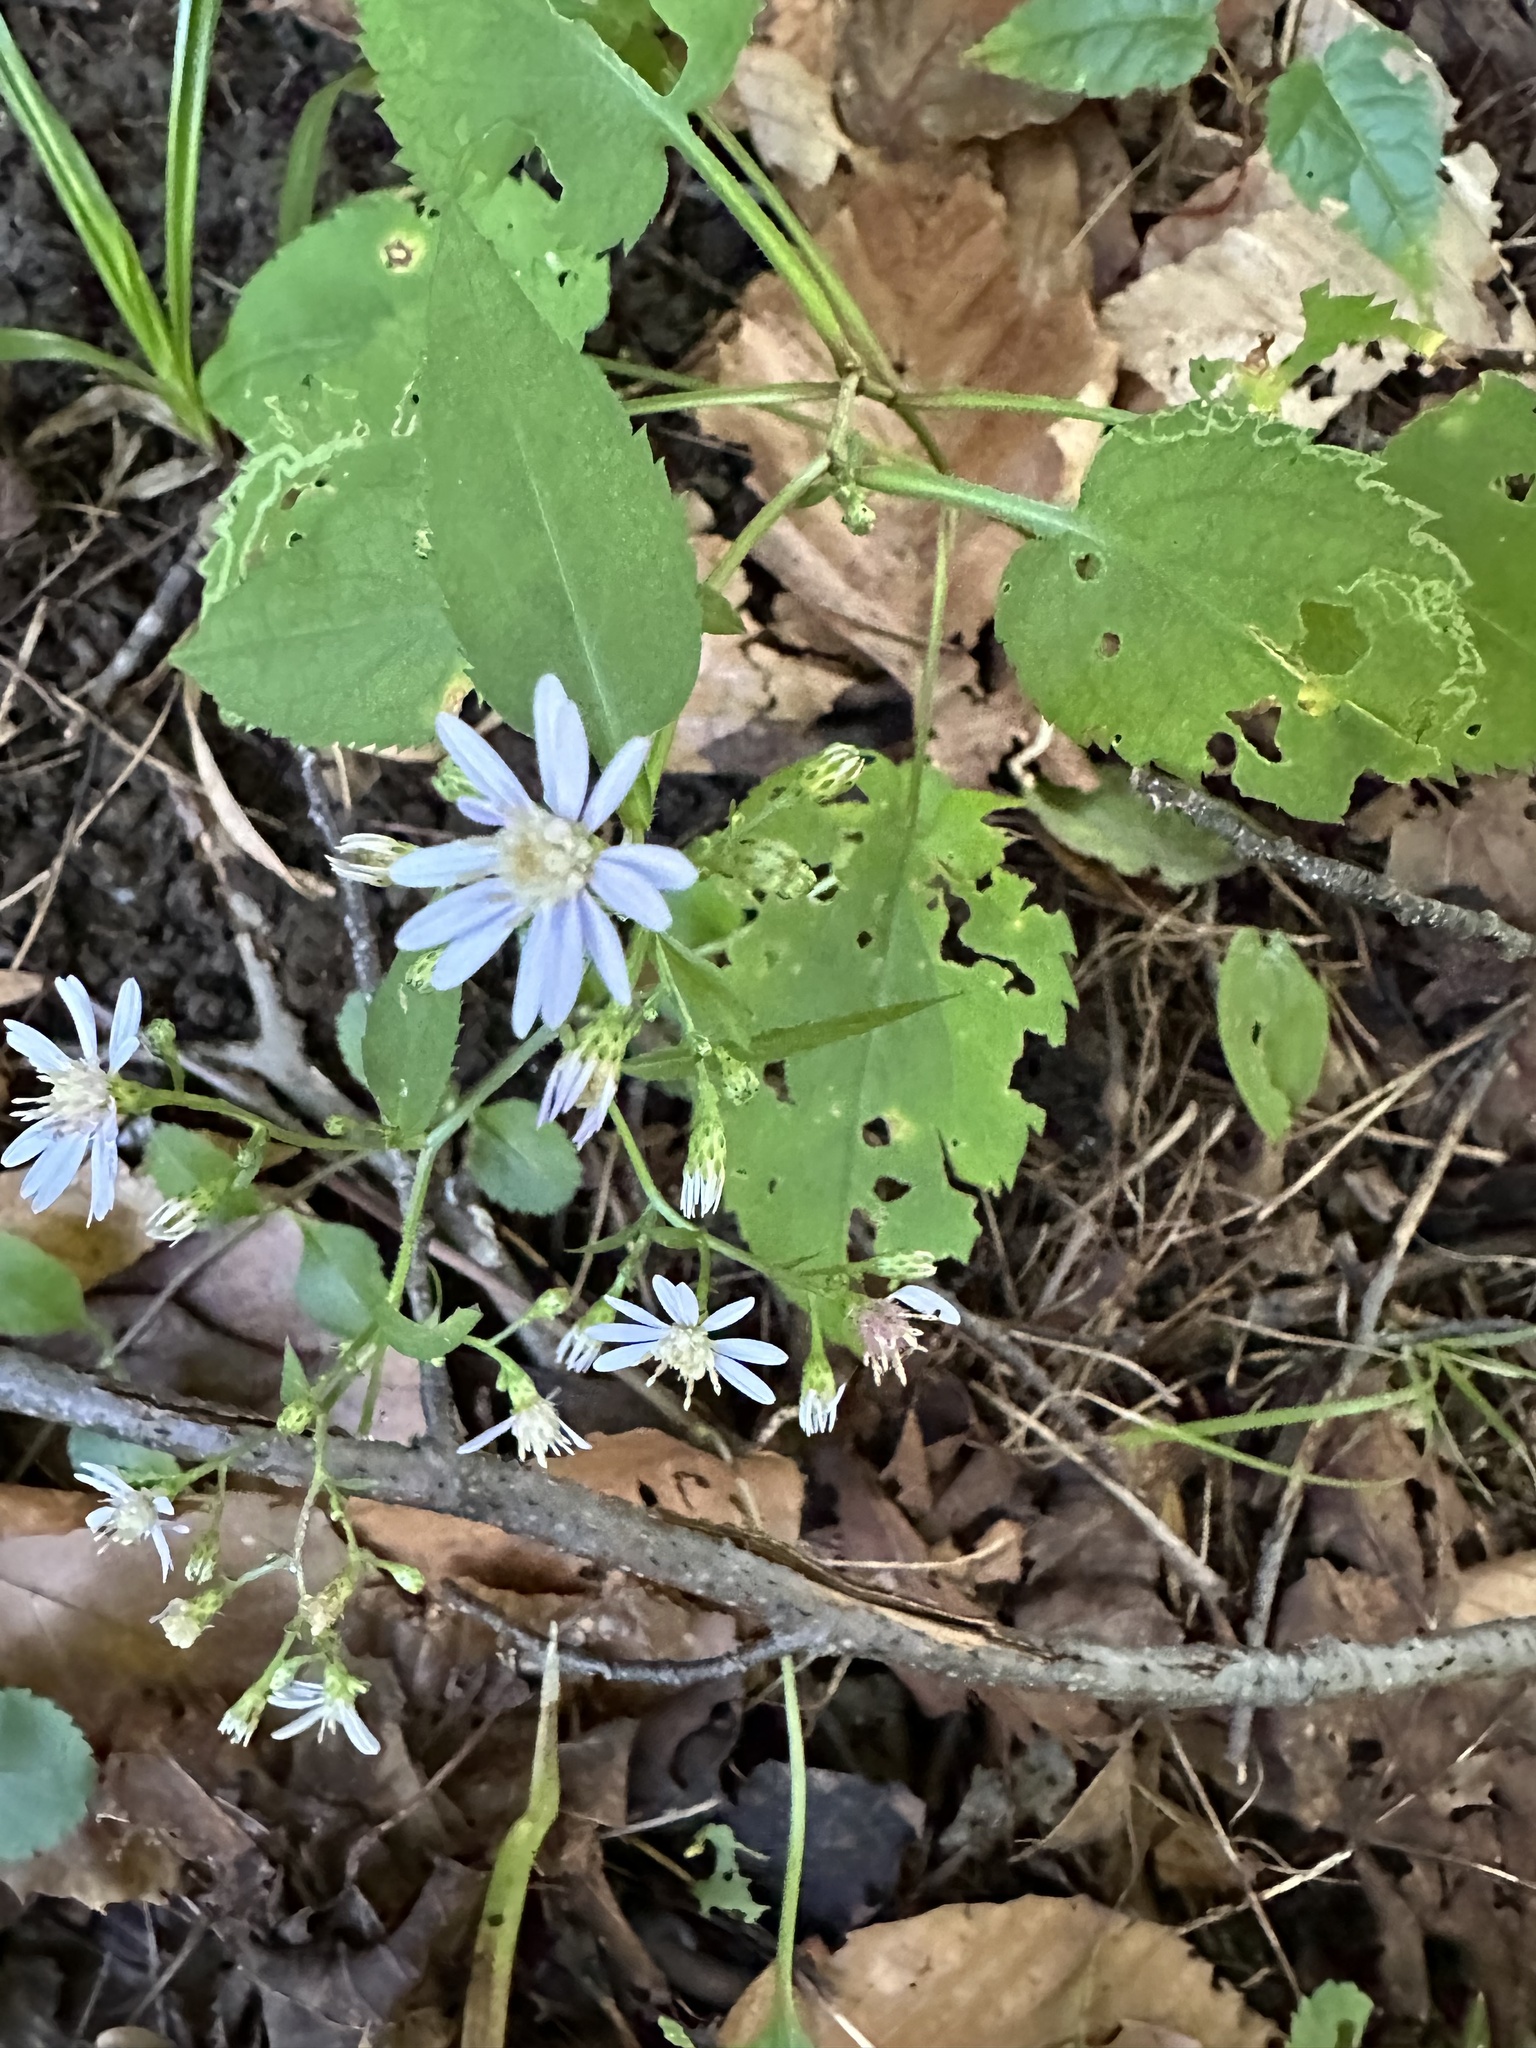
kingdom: Plantae
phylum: Tracheophyta
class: Magnoliopsida
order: Asterales
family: Asteraceae
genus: Symphyotrichum
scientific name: Symphyotrichum cordifolium
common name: Beeweed
